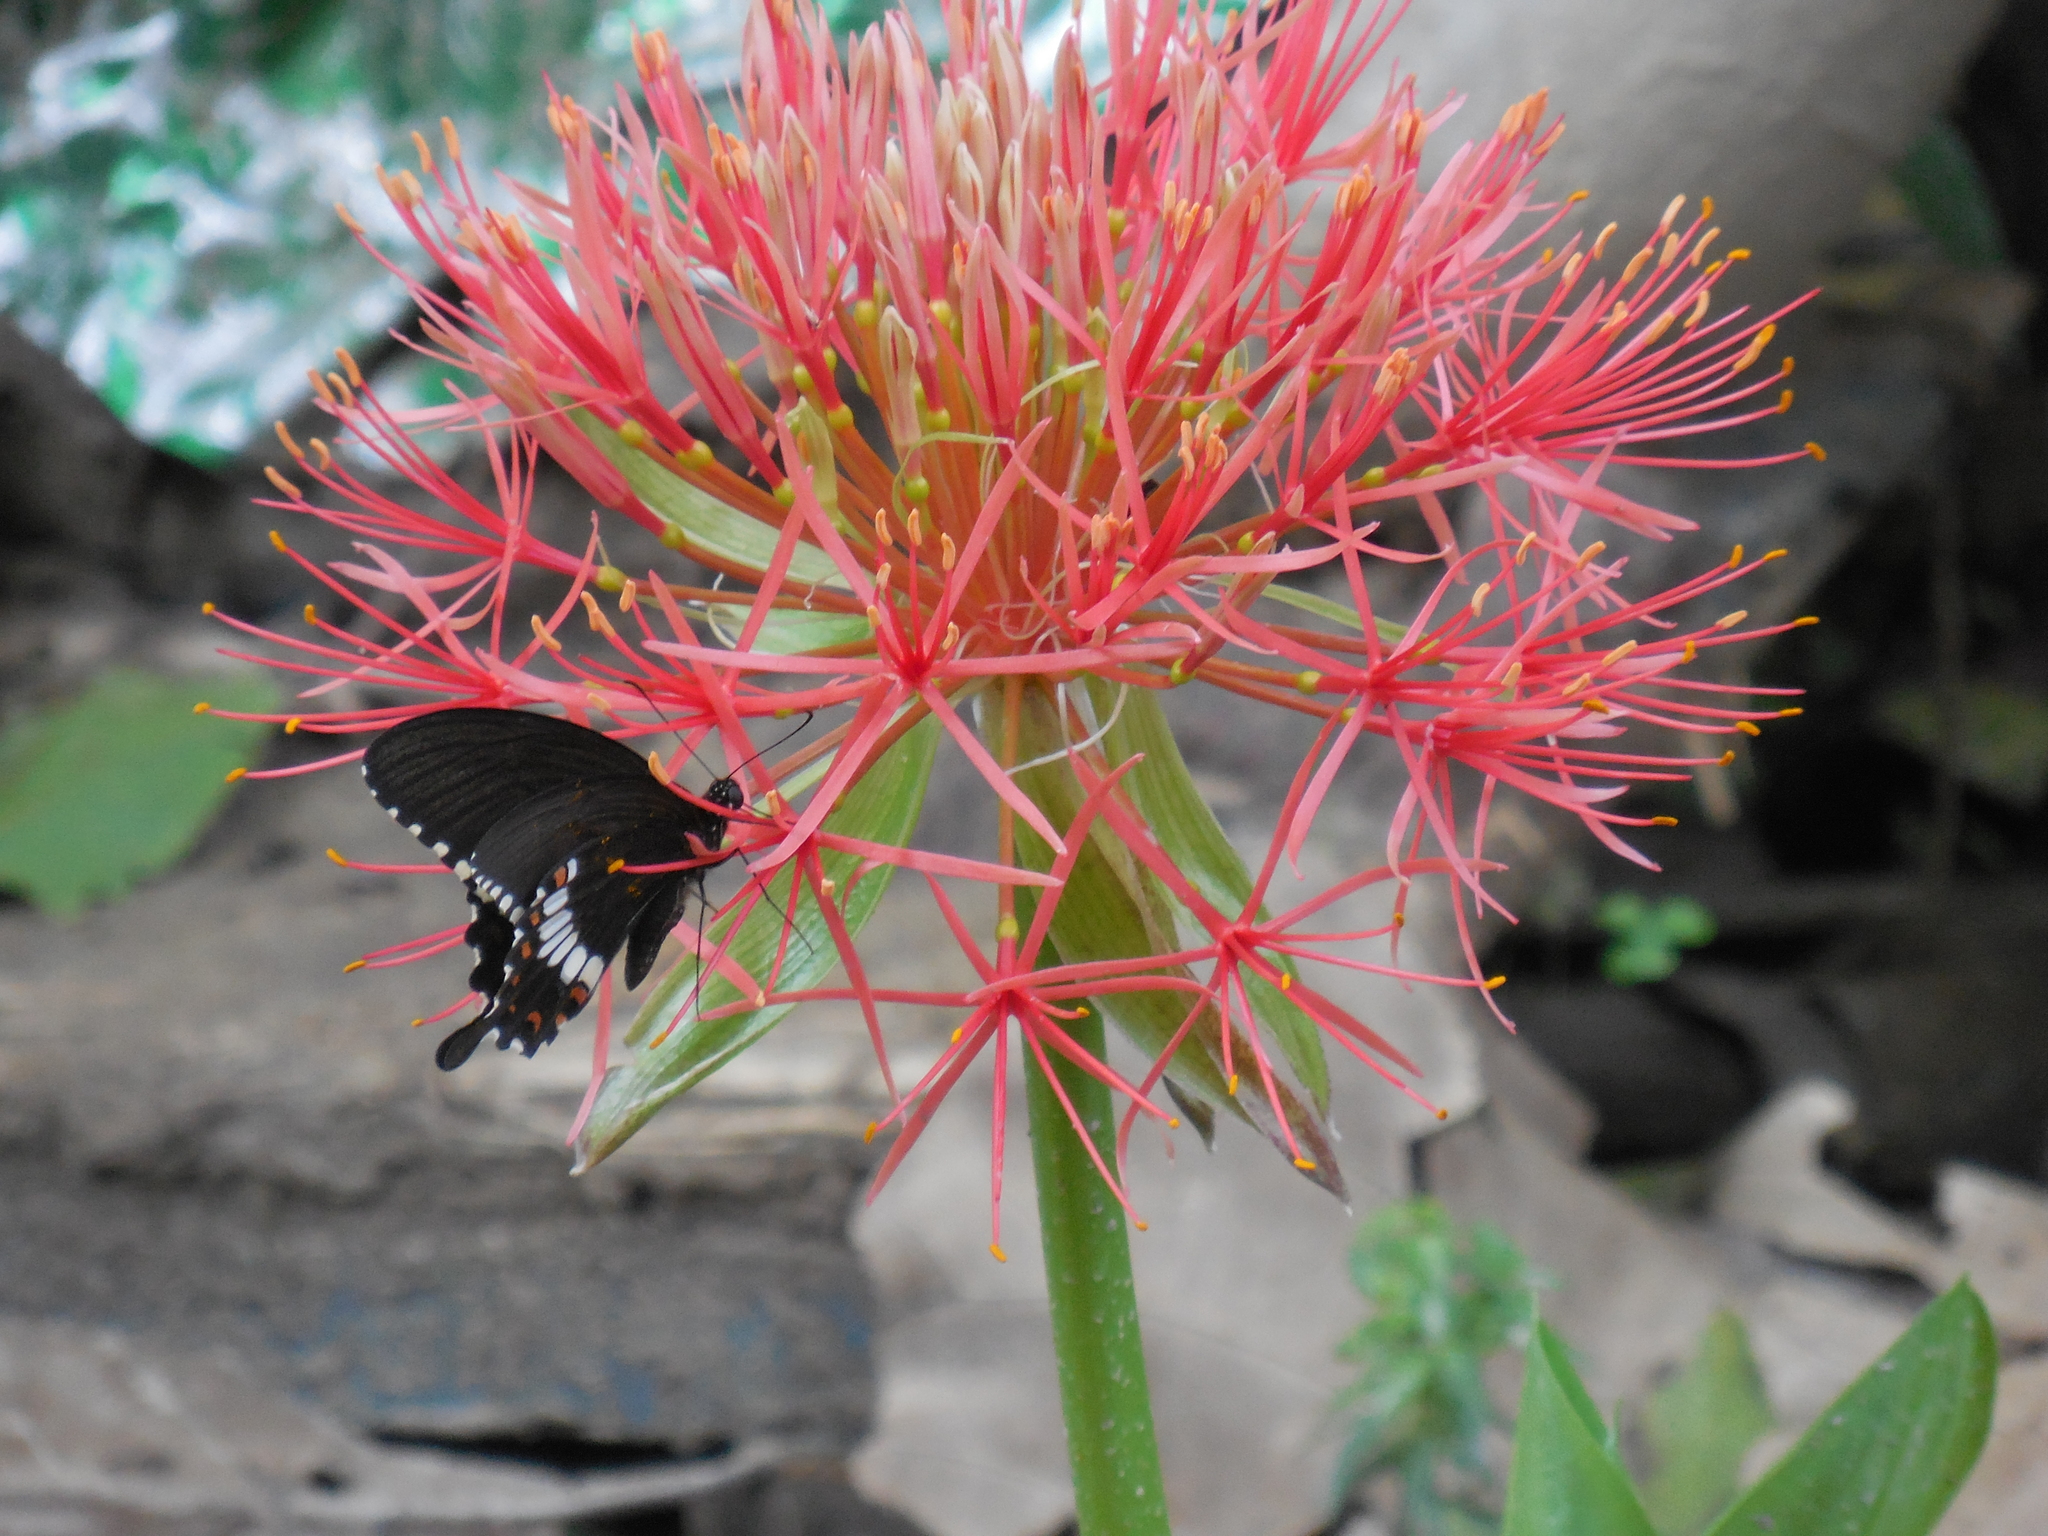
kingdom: Animalia
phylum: Arthropoda
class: Insecta
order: Lepidoptera
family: Papilionidae
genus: Papilio
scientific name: Papilio polytes
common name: Common mormon
